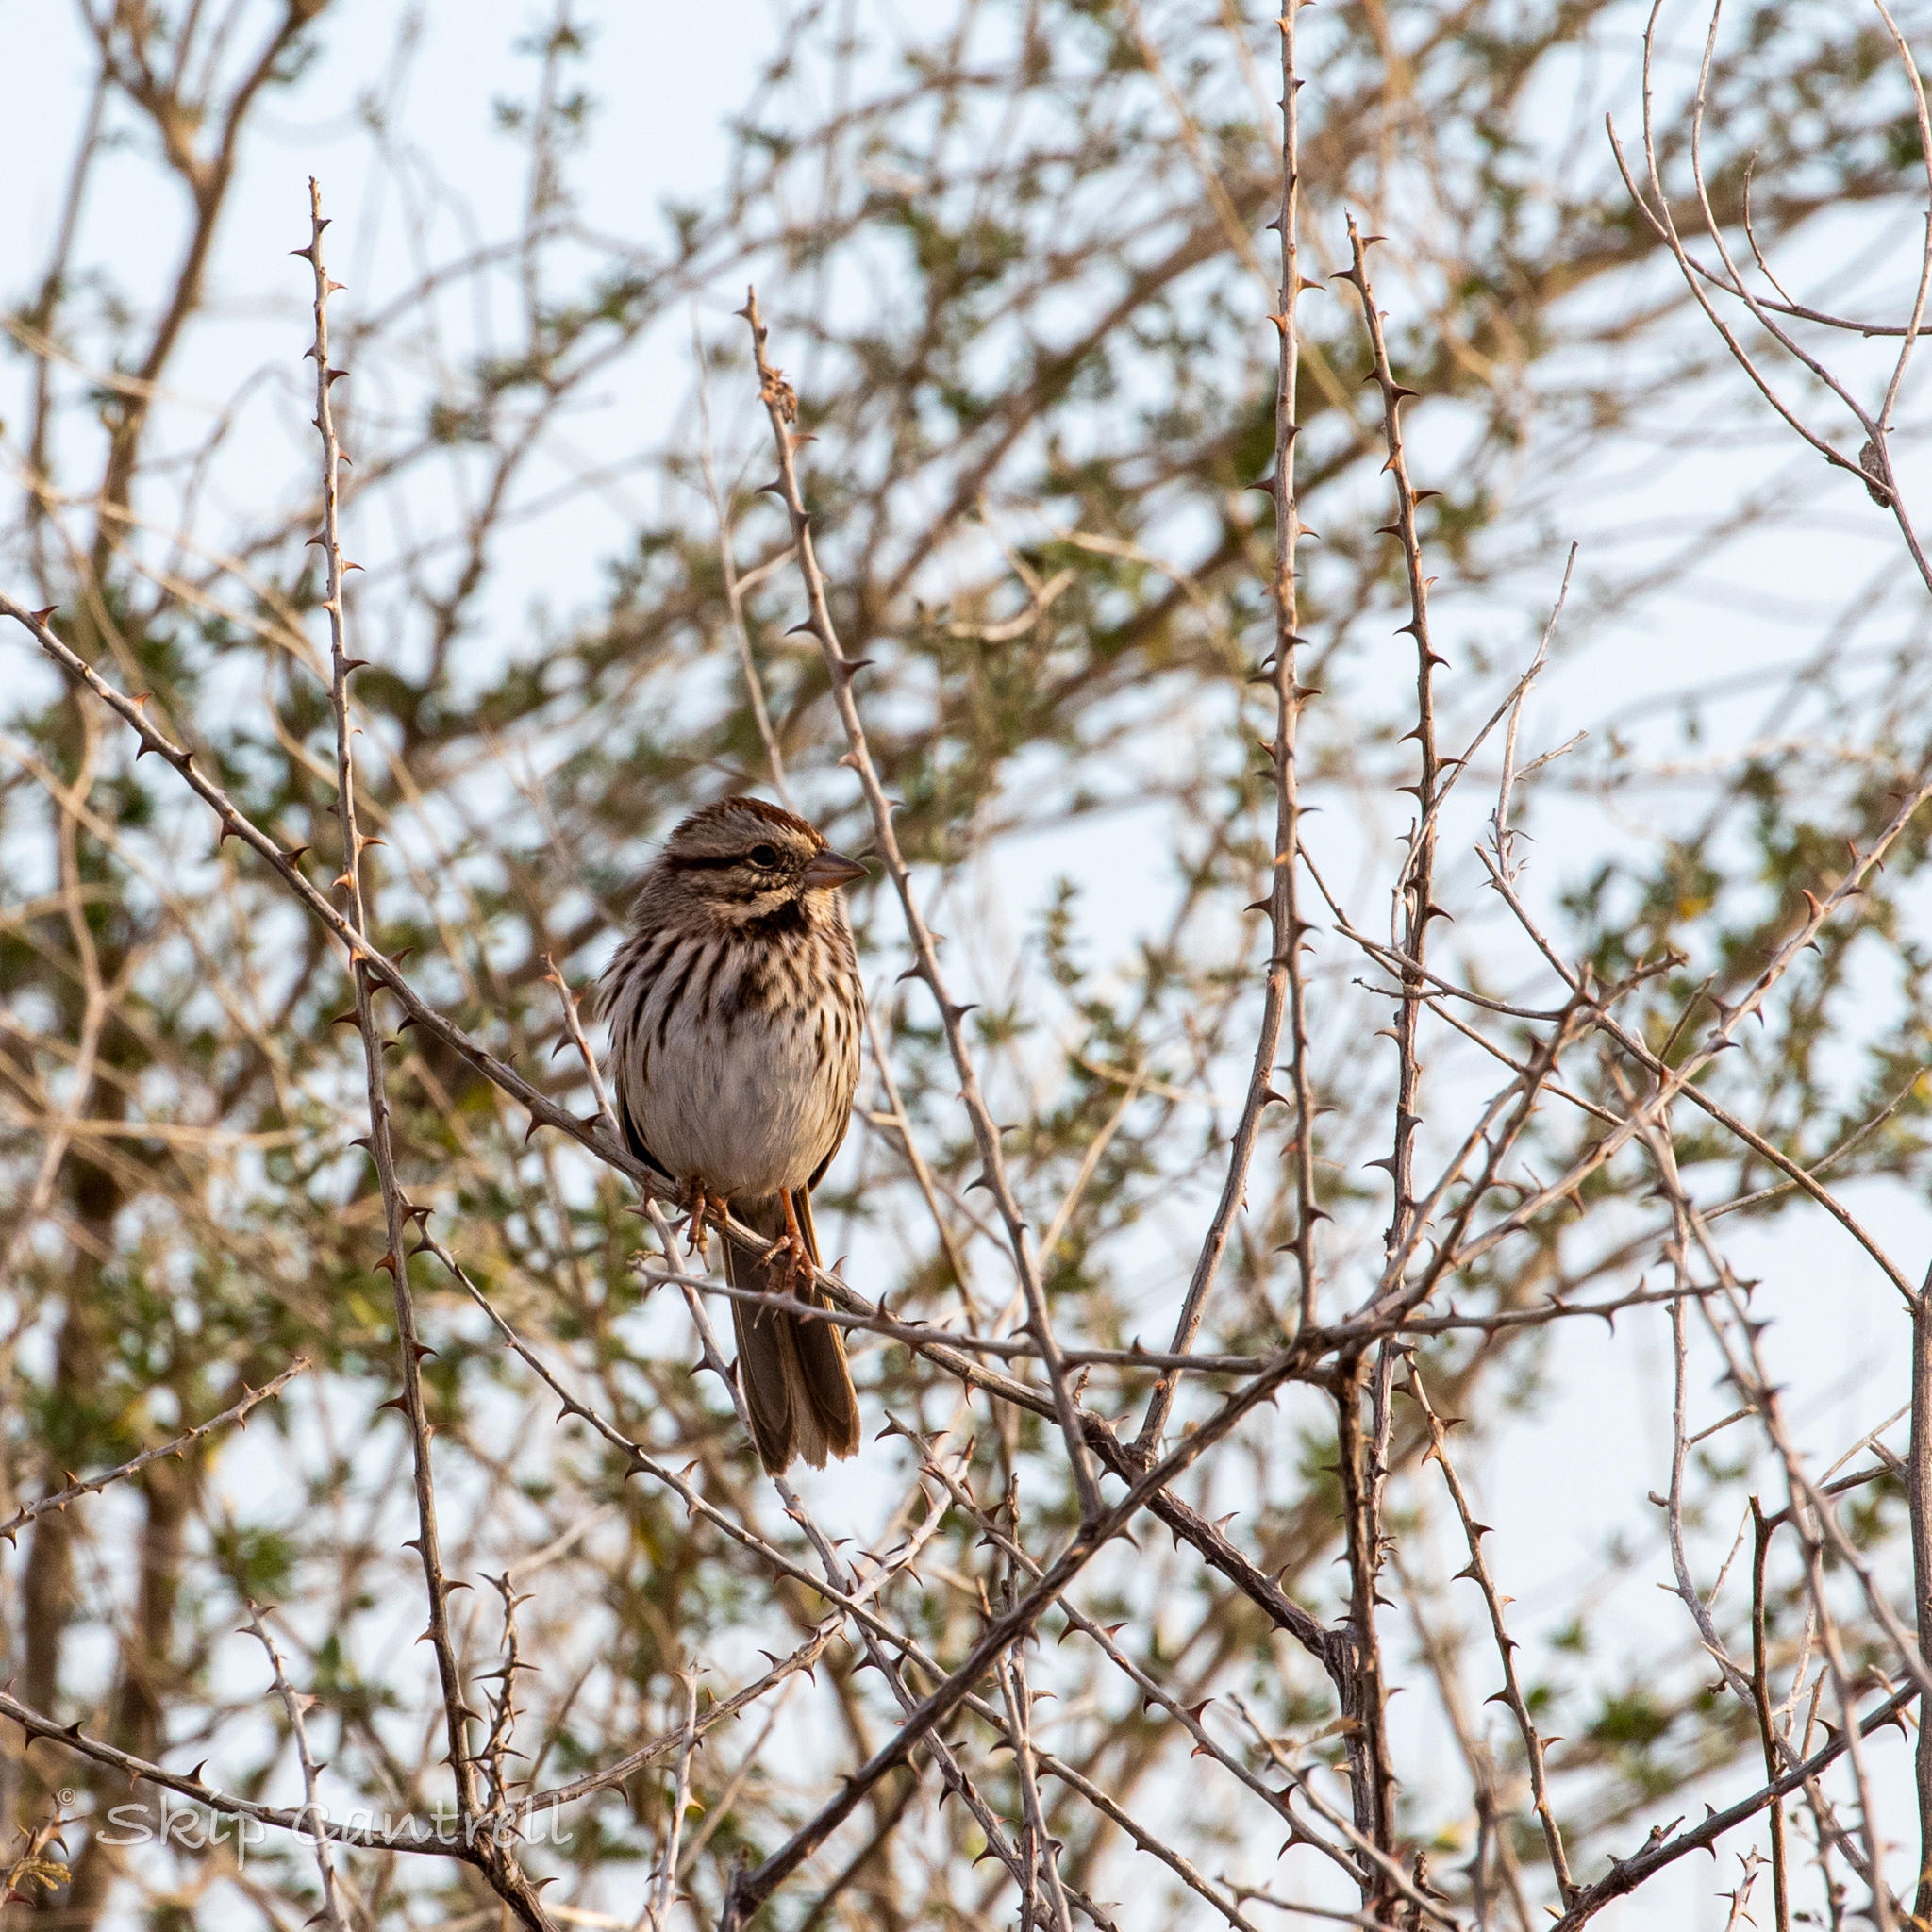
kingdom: Animalia
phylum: Chordata
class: Aves
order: Passeriformes
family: Passerellidae
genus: Melospiza
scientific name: Melospiza melodia
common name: Song sparrow
